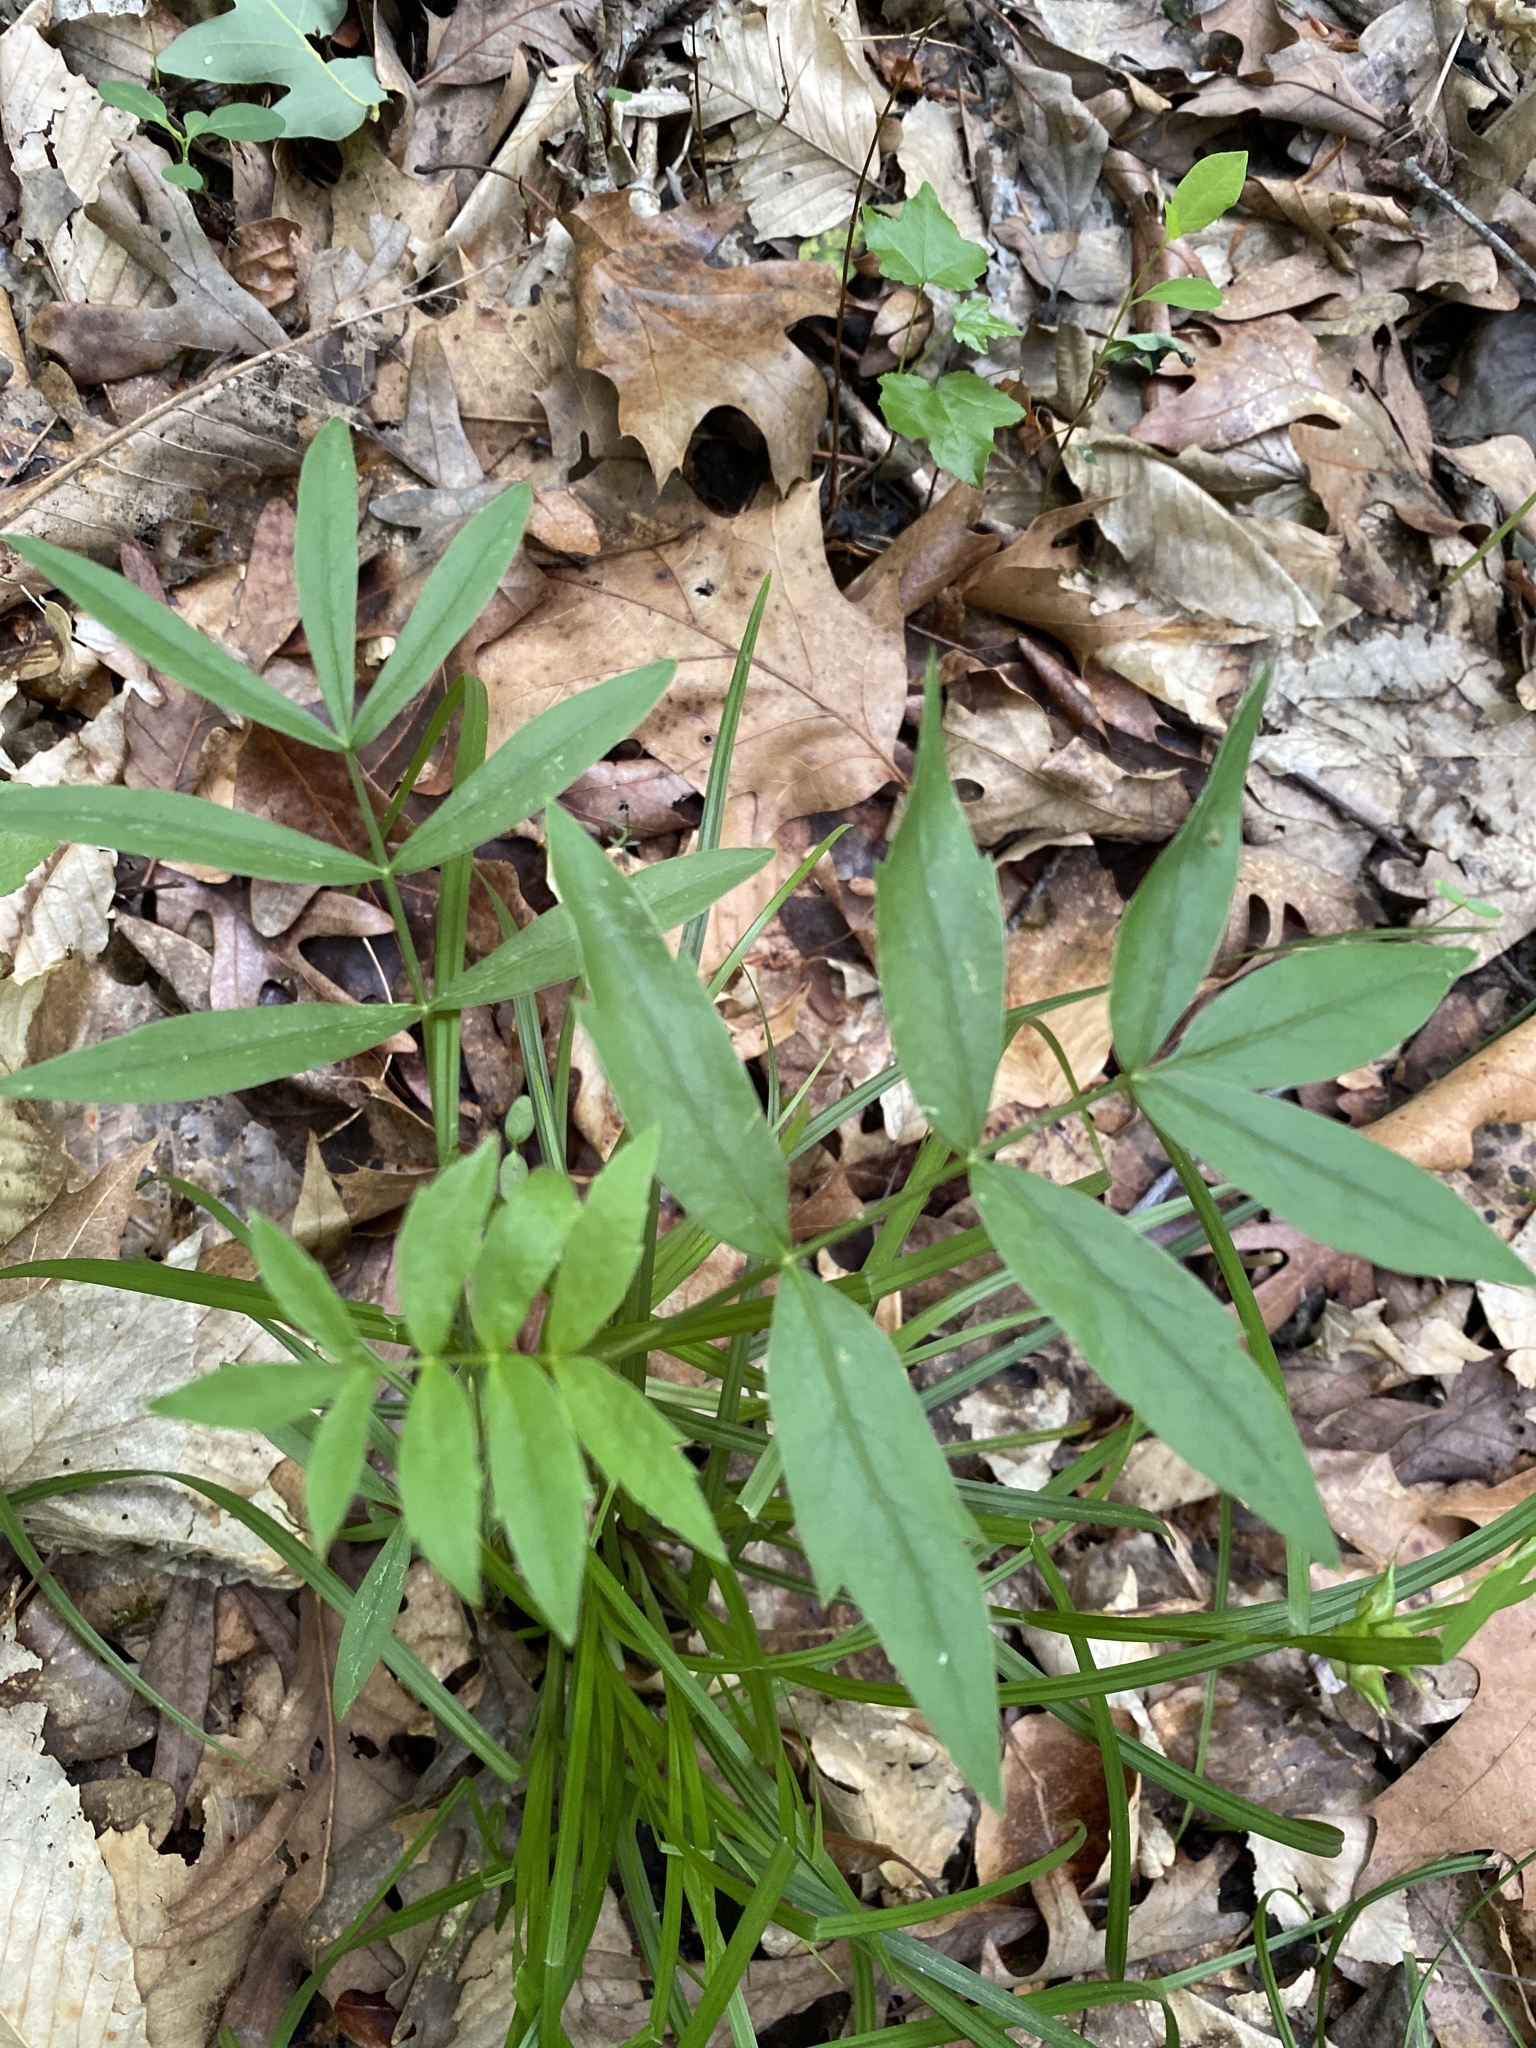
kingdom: Plantae
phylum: Tracheophyta
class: Magnoliopsida
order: Apiales
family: Apiaceae
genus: Oxypolis
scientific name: Oxypolis rigidior
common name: Cowbane
